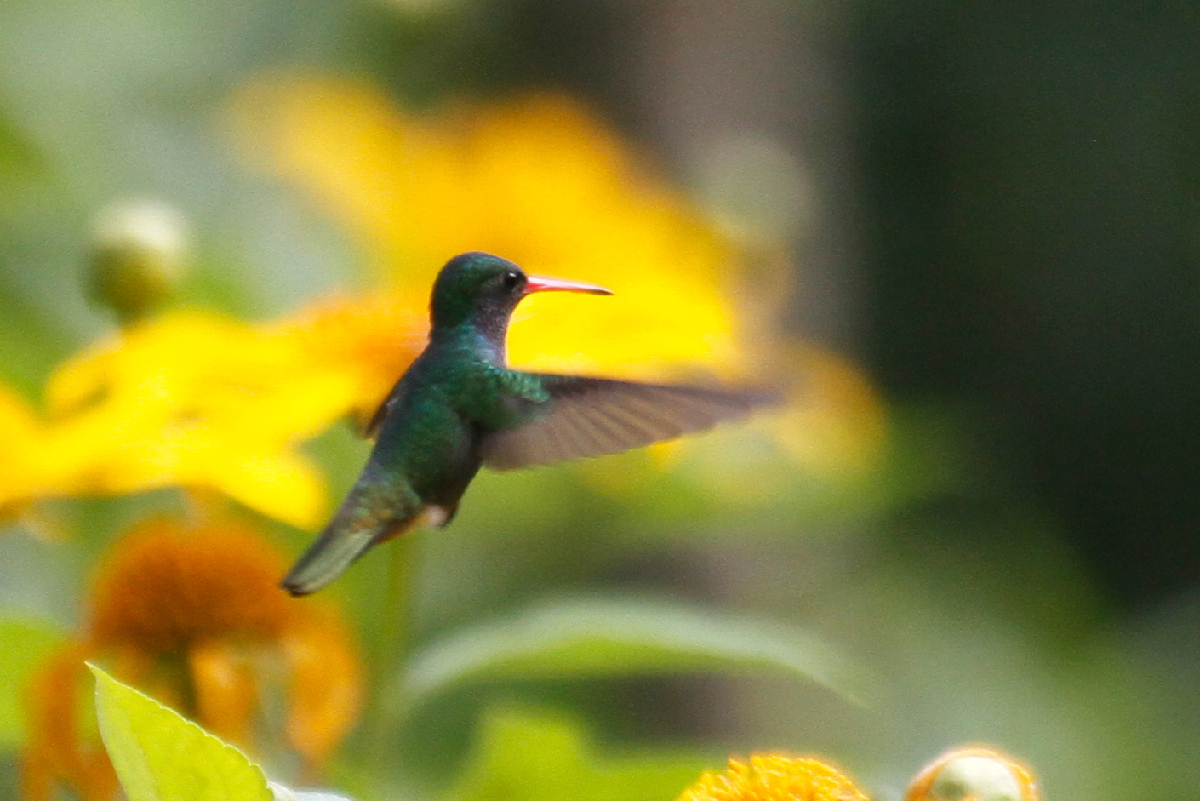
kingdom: Animalia
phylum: Chordata
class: Aves
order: Apodiformes
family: Trochilidae
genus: Chlorestes
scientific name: Chlorestes eliciae
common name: Blue-throated sapphire
